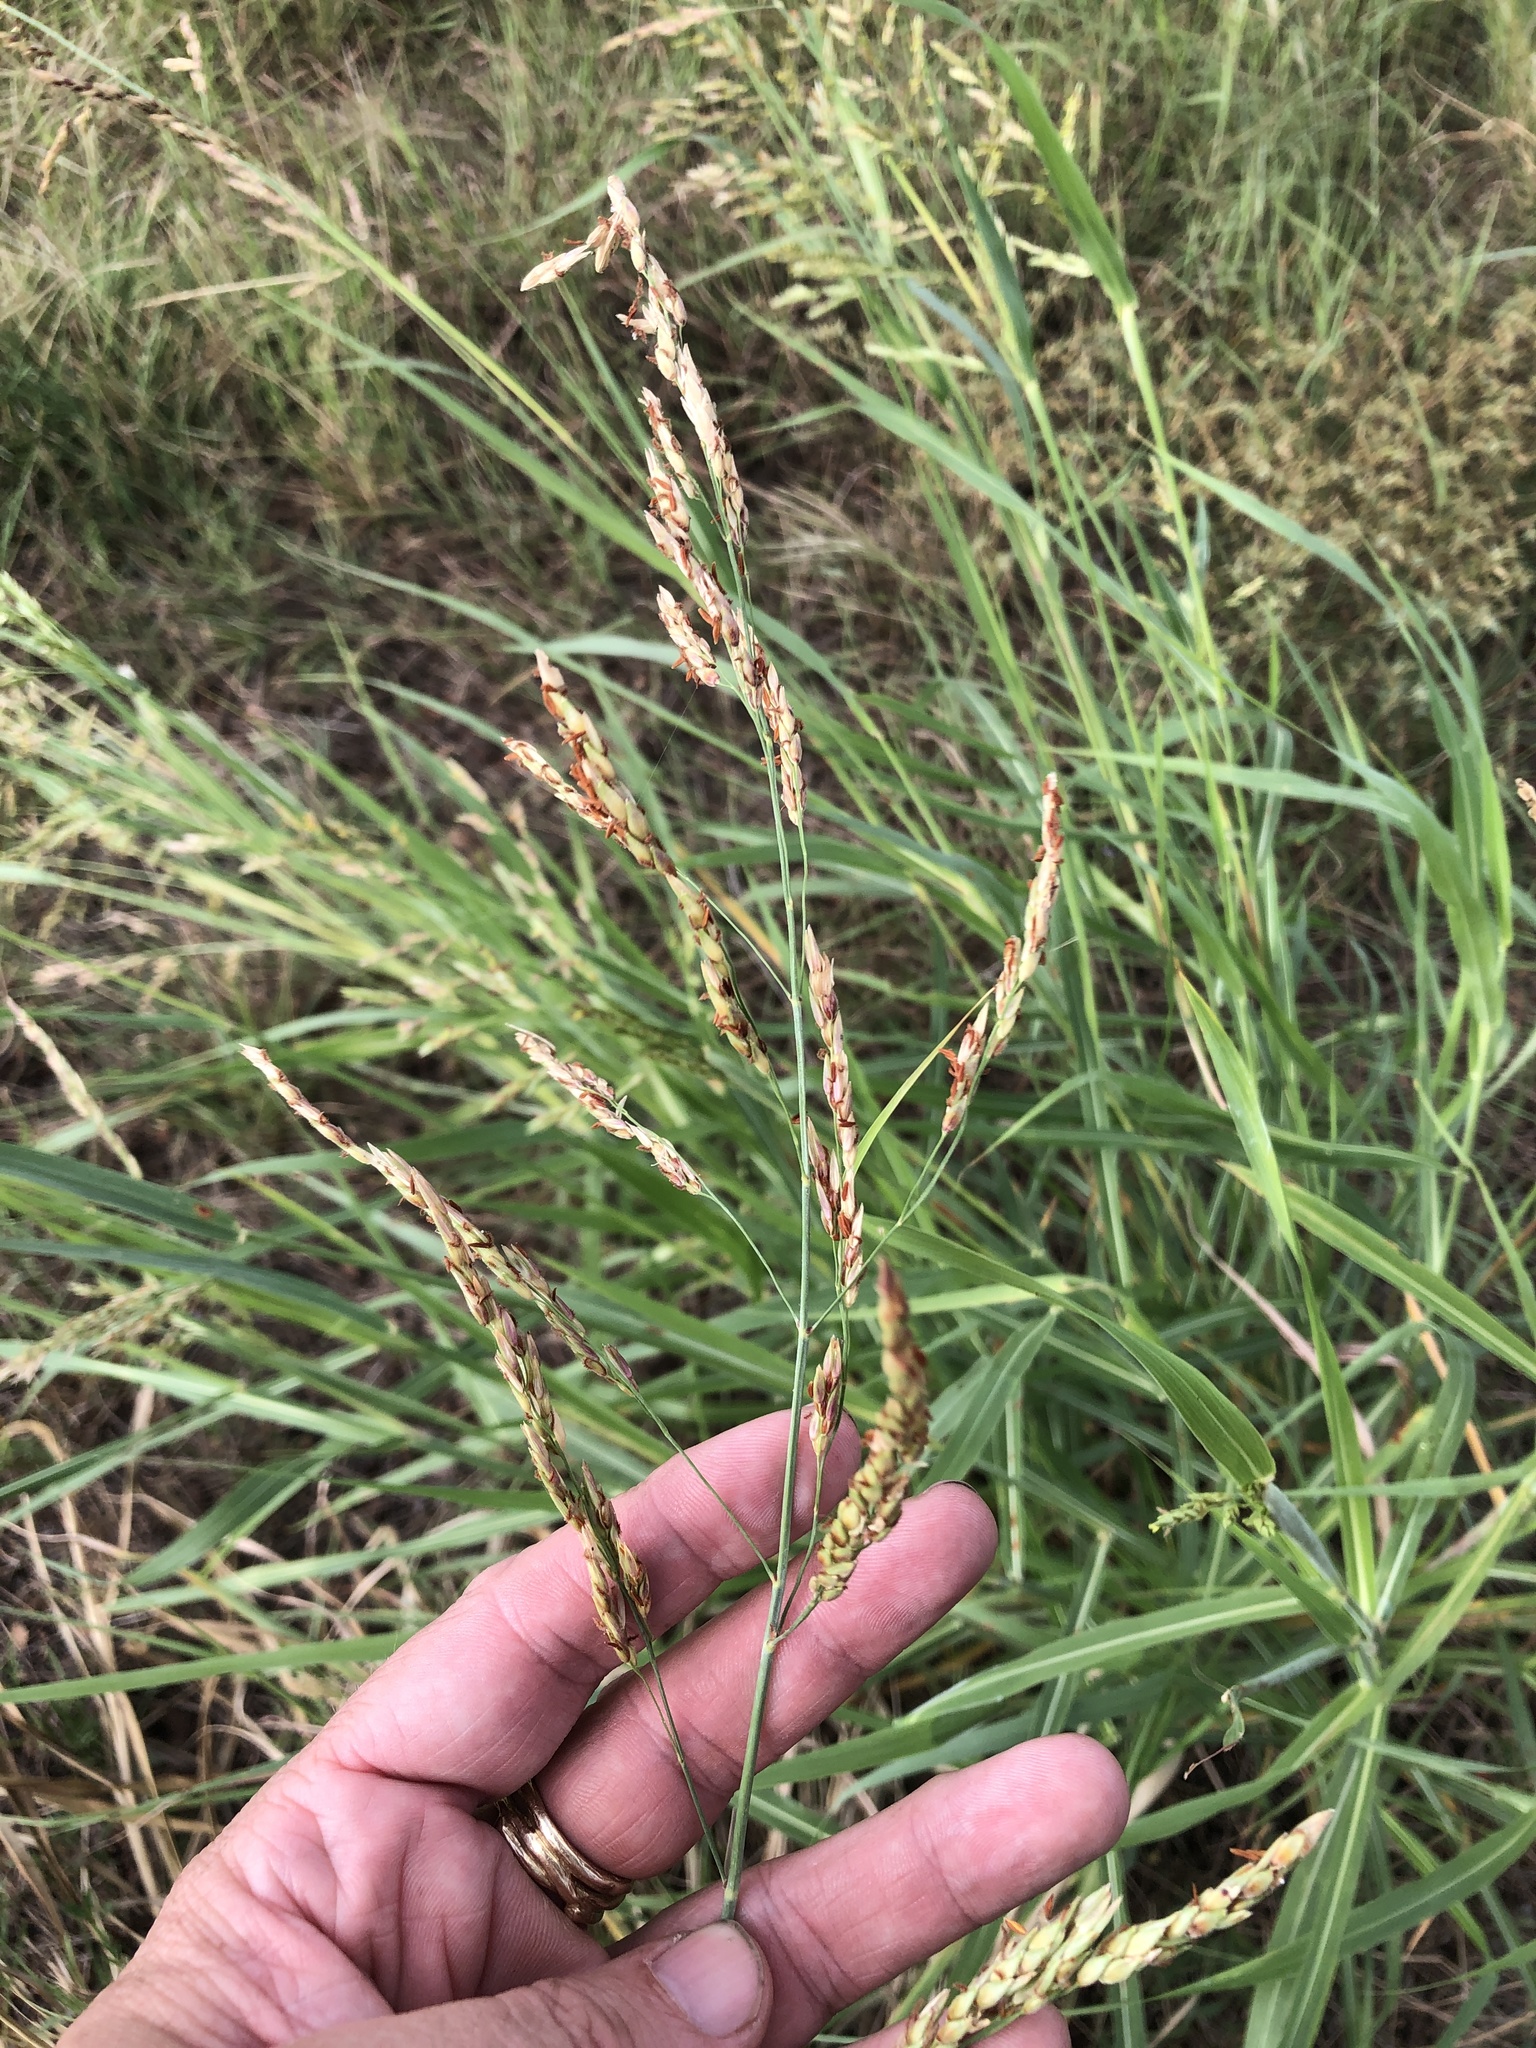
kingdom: Plantae
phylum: Tracheophyta
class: Liliopsida
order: Poales
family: Poaceae
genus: Sorghum
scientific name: Sorghum halepense
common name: Johnson-grass
